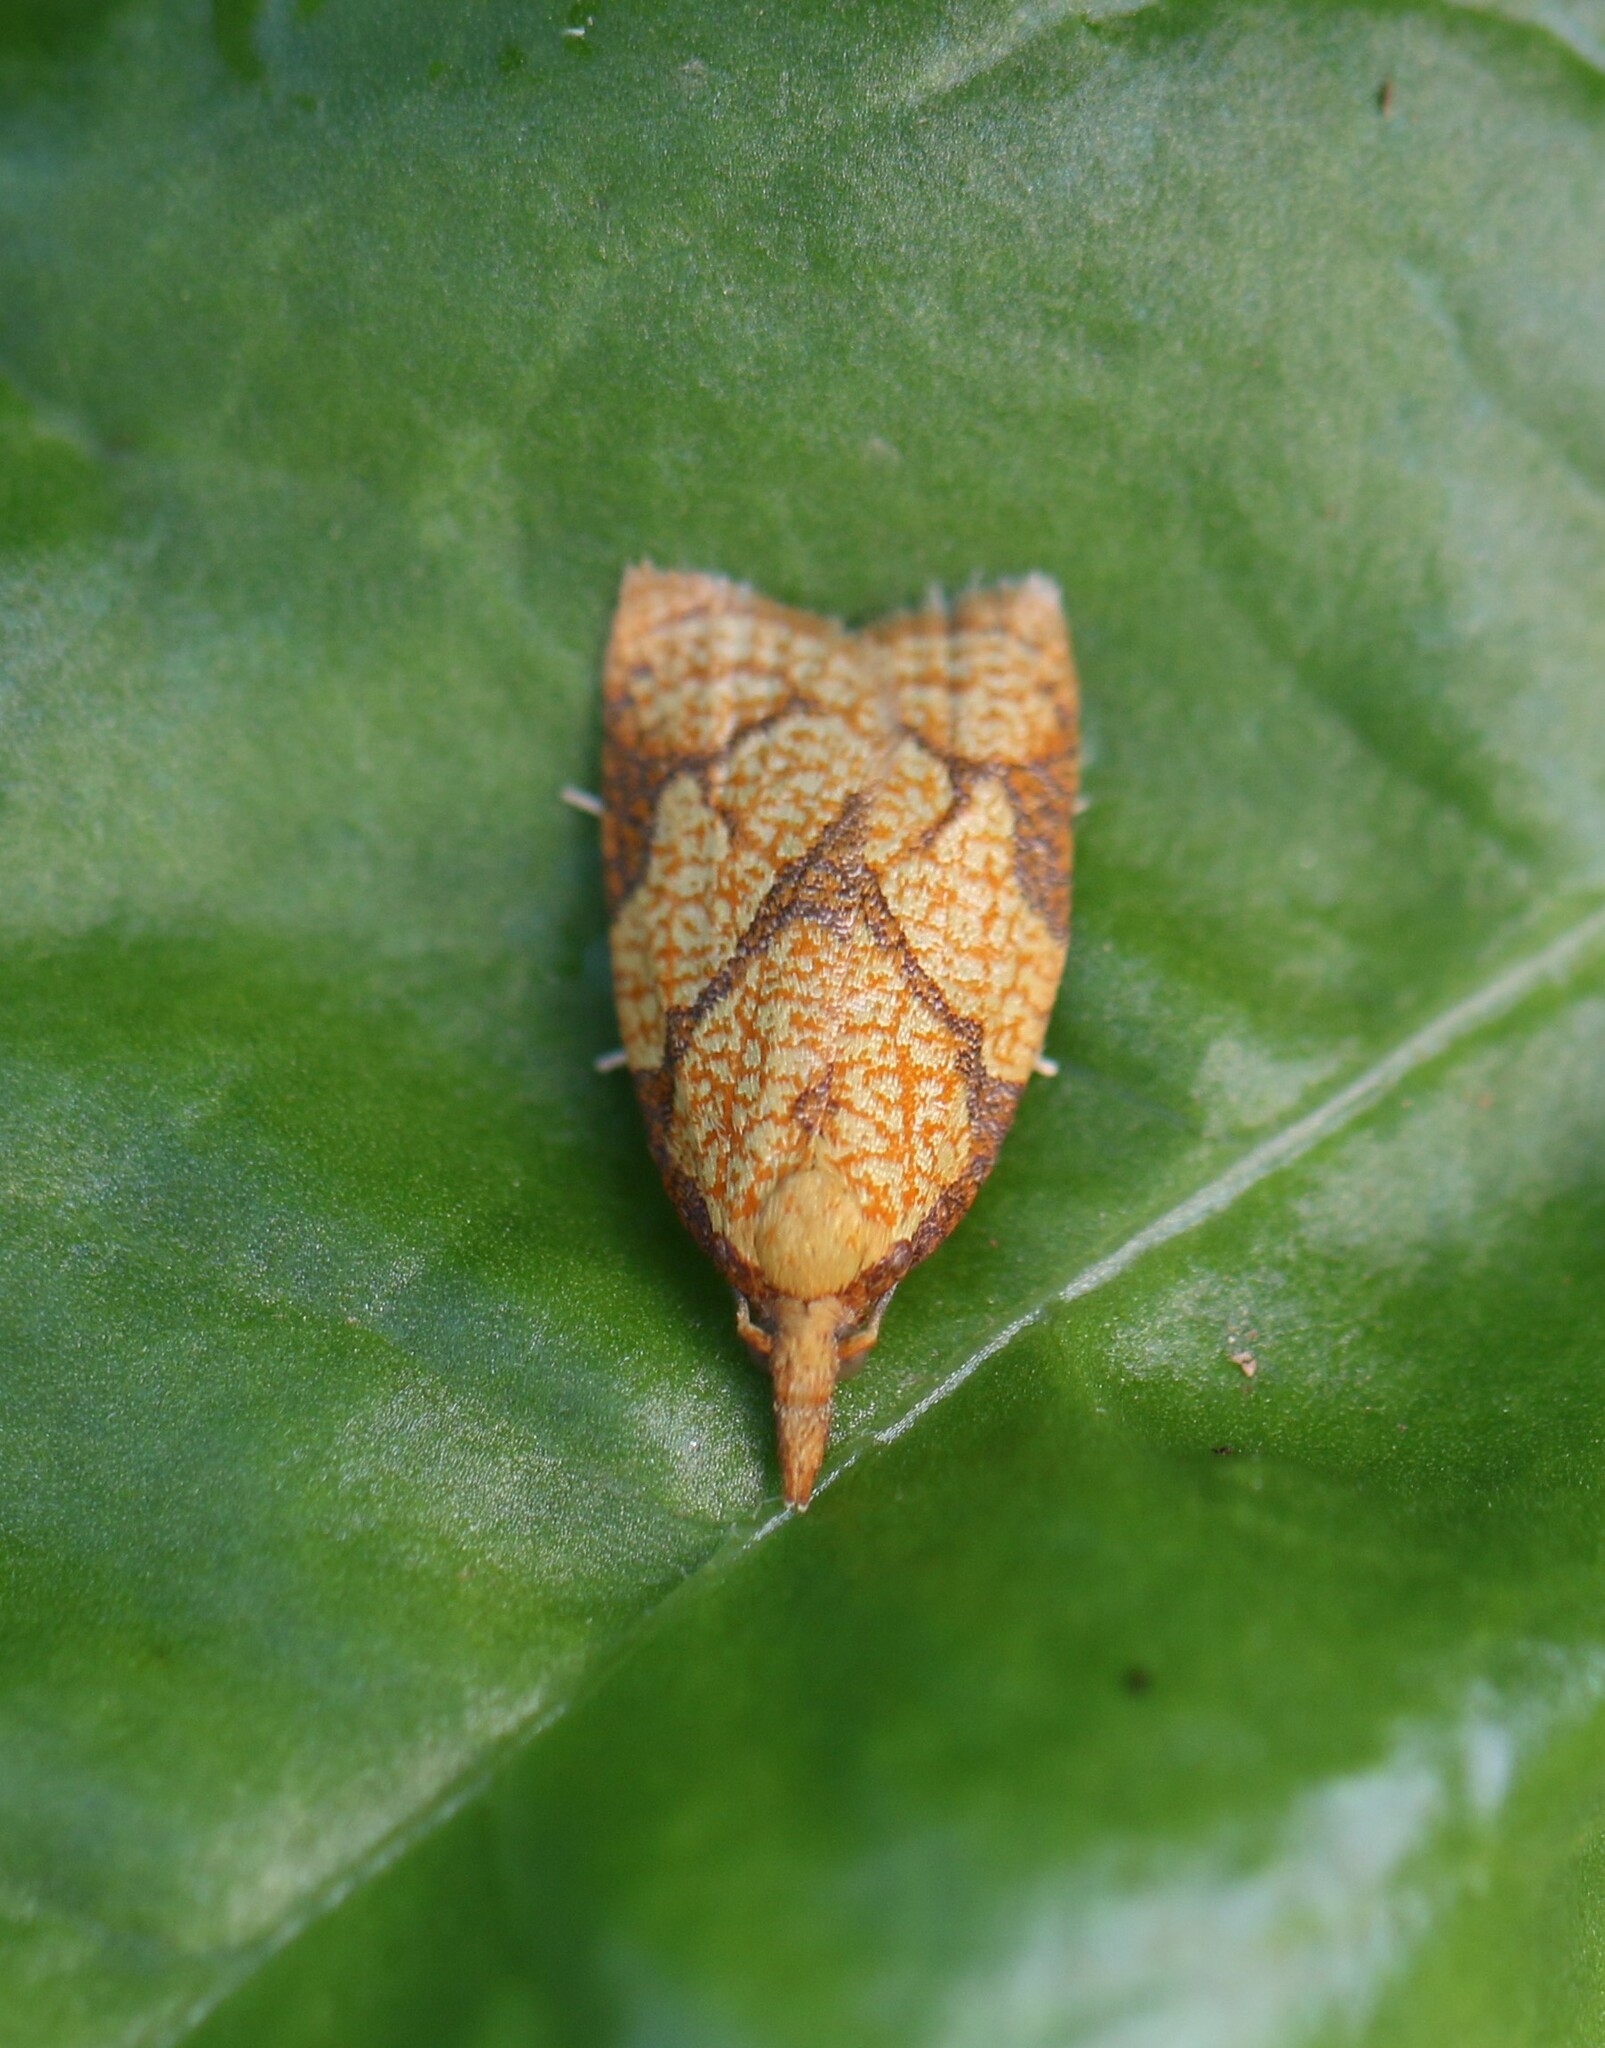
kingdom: Animalia
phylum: Arthropoda
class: Insecta
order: Lepidoptera
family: Tortricidae
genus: Cenopis
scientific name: Cenopis reticulatana
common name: Reticulated fruitworm moth
